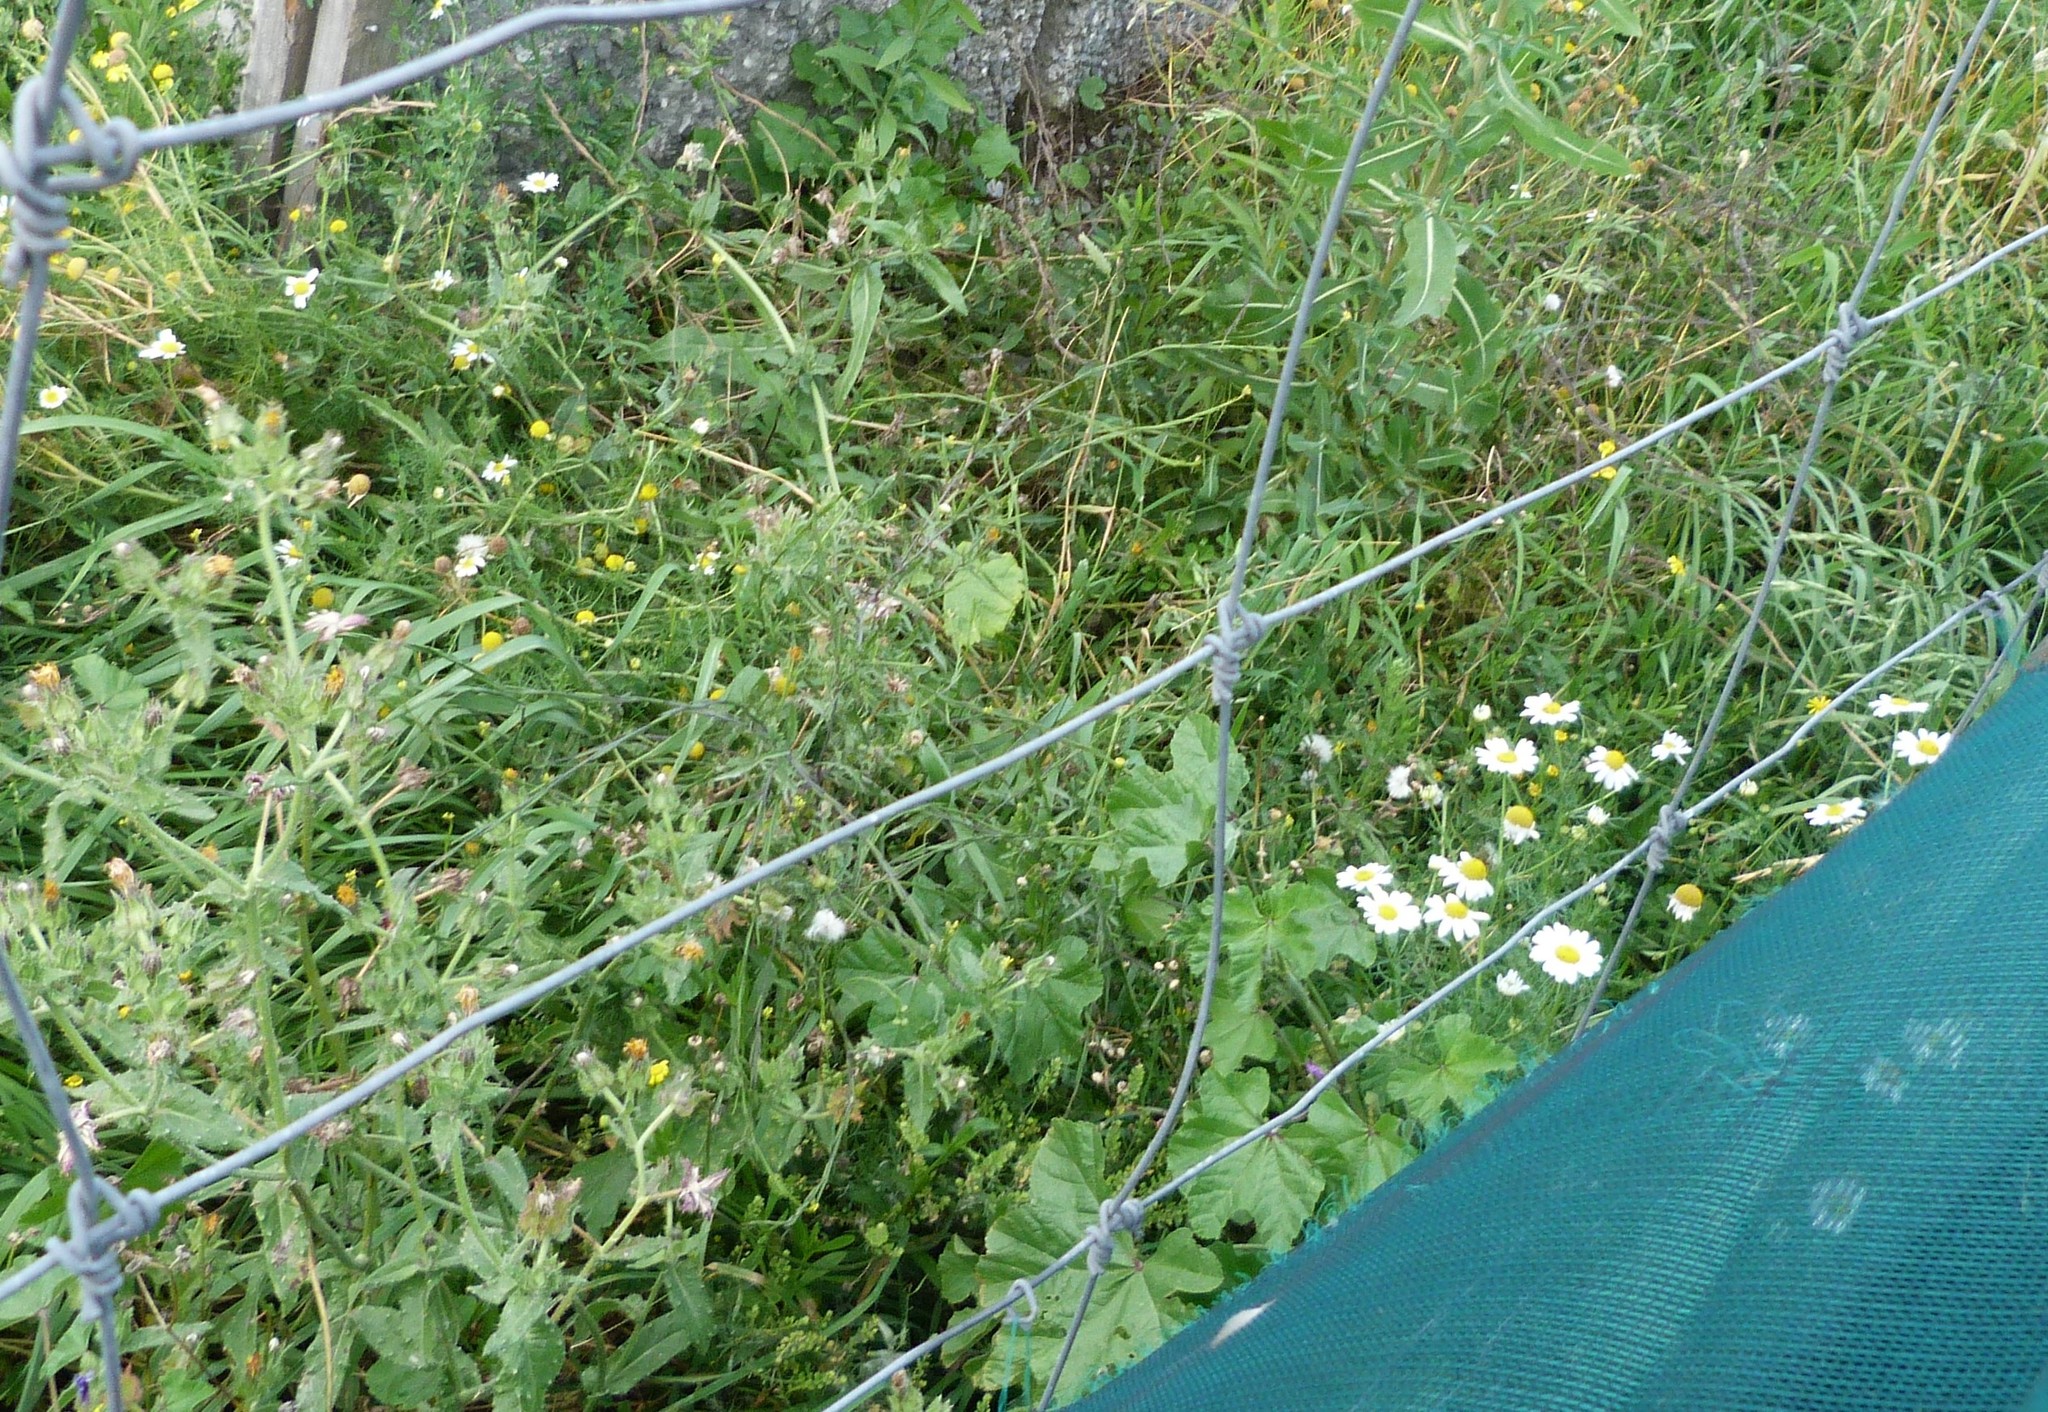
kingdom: Plantae
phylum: Tracheophyta
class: Magnoliopsida
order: Asterales
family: Asteraceae
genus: Tripleurospermum
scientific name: Tripleurospermum maritimum
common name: Sea mayweed
